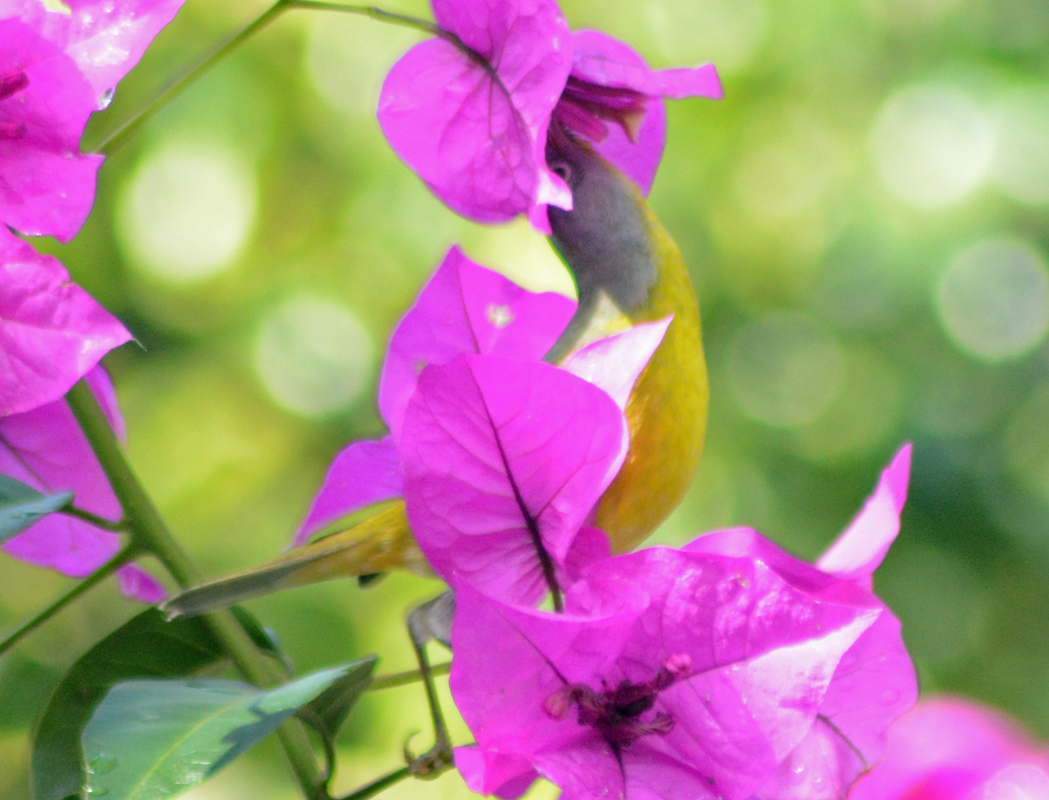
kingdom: Animalia
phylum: Chordata
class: Aves
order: Passeriformes
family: Parulidae
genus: Leiothlypis
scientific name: Leiothlypis ruficapilla
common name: Nashville warbler
